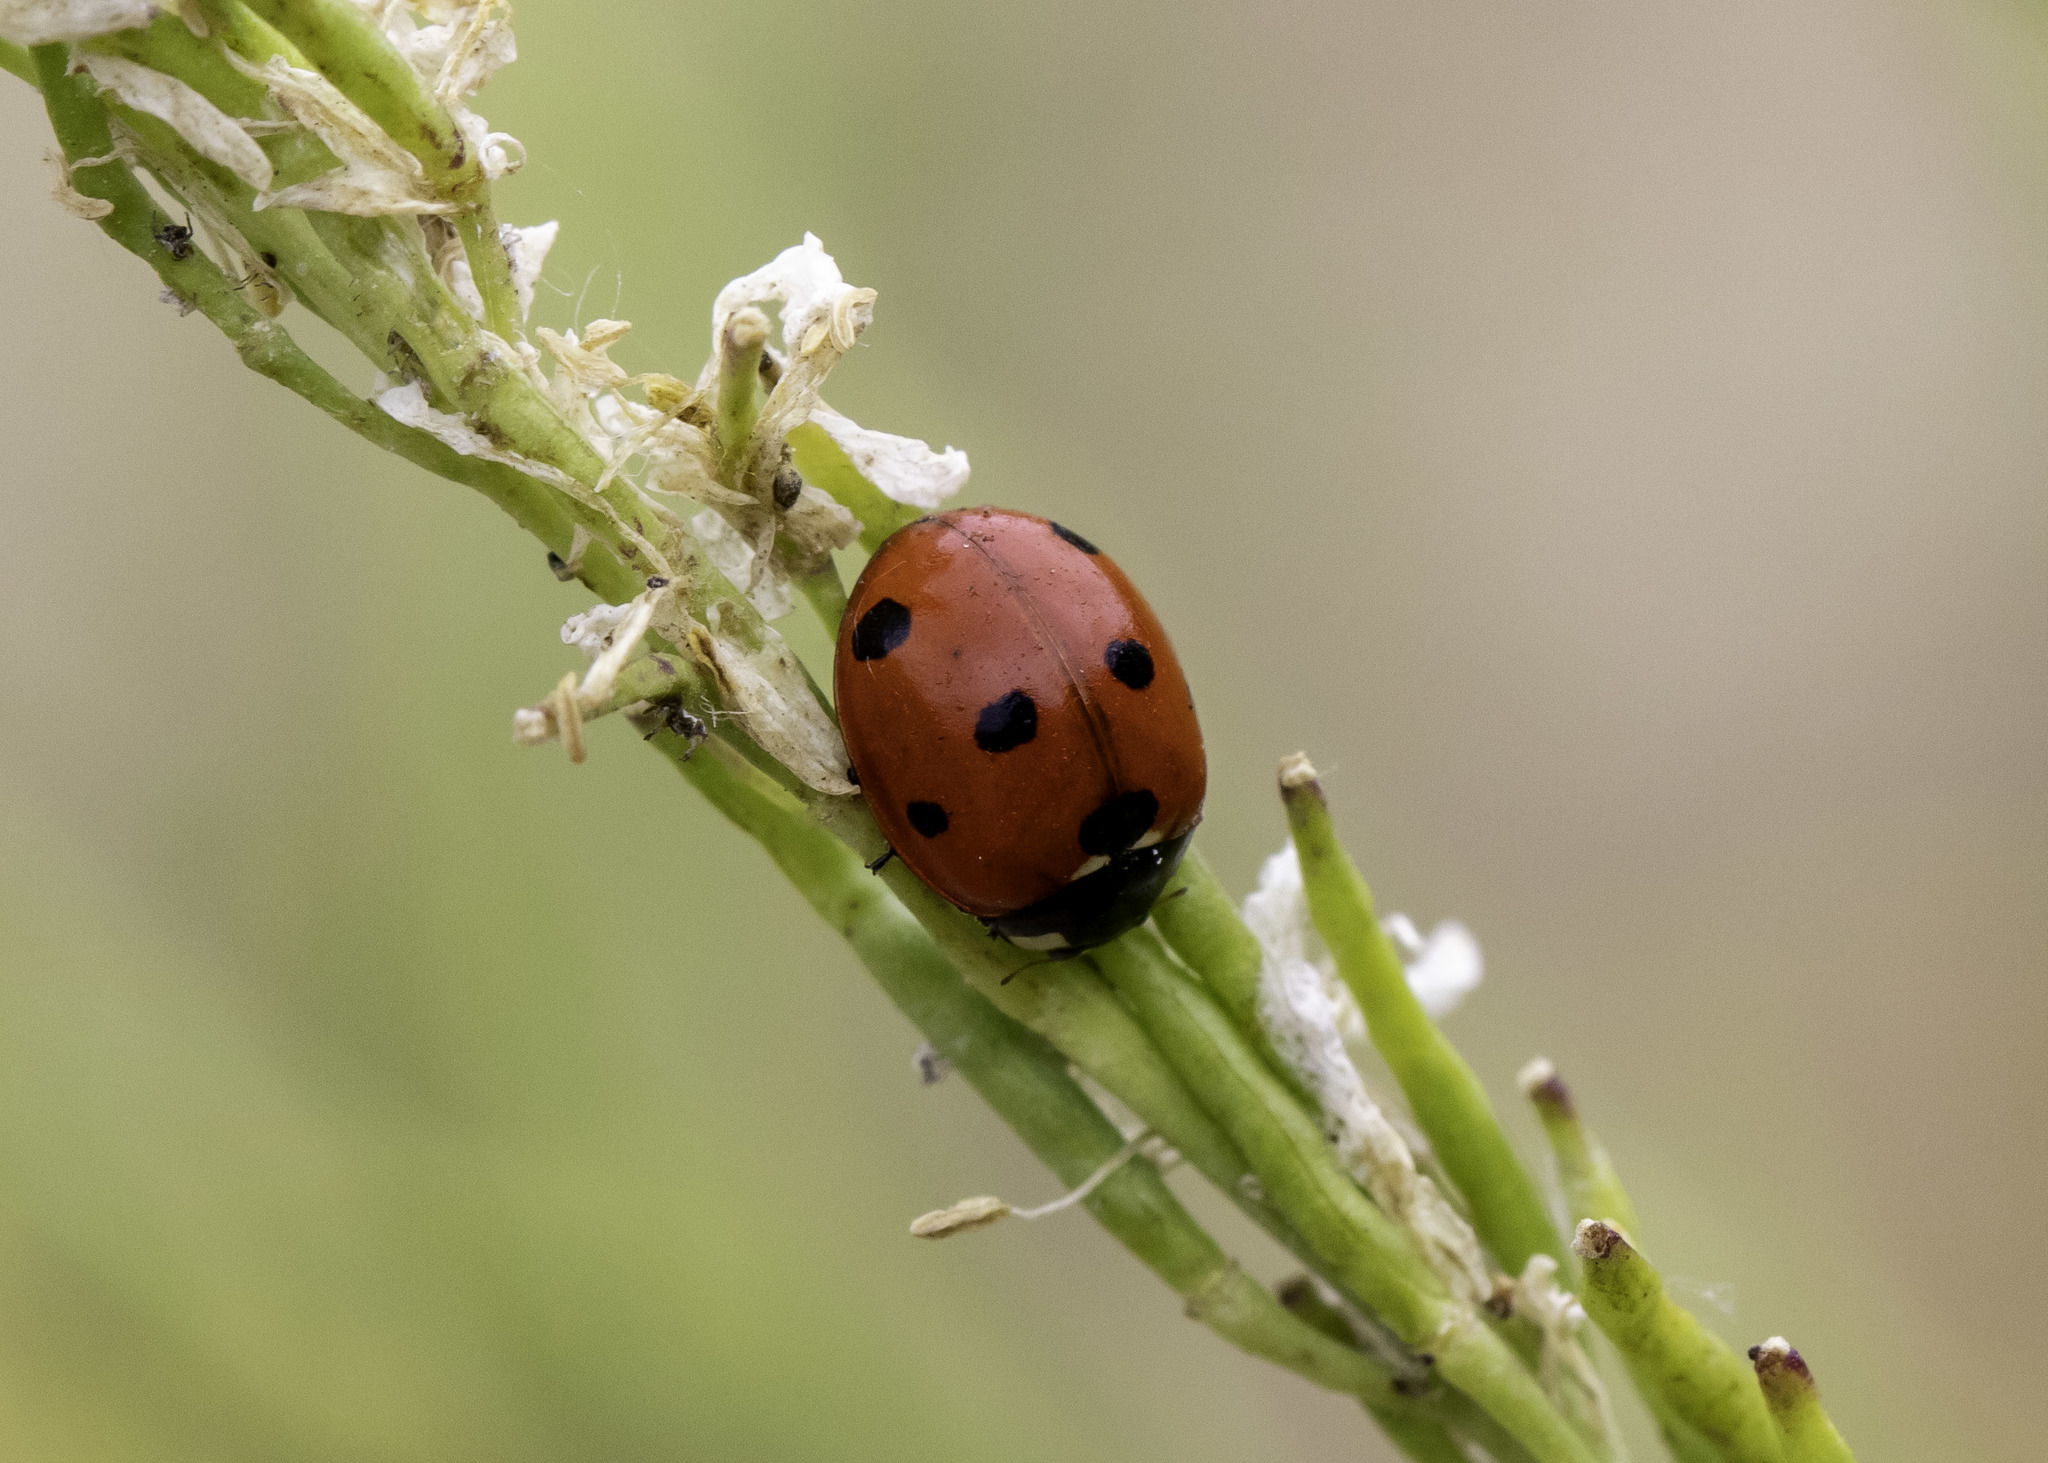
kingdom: Animalia
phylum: Arthropoda
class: Insecta
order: Coleoptera
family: Coccinellidae
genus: Coccinella
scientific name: Coccinella septempunctata
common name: Sevenspotted lady beetle
